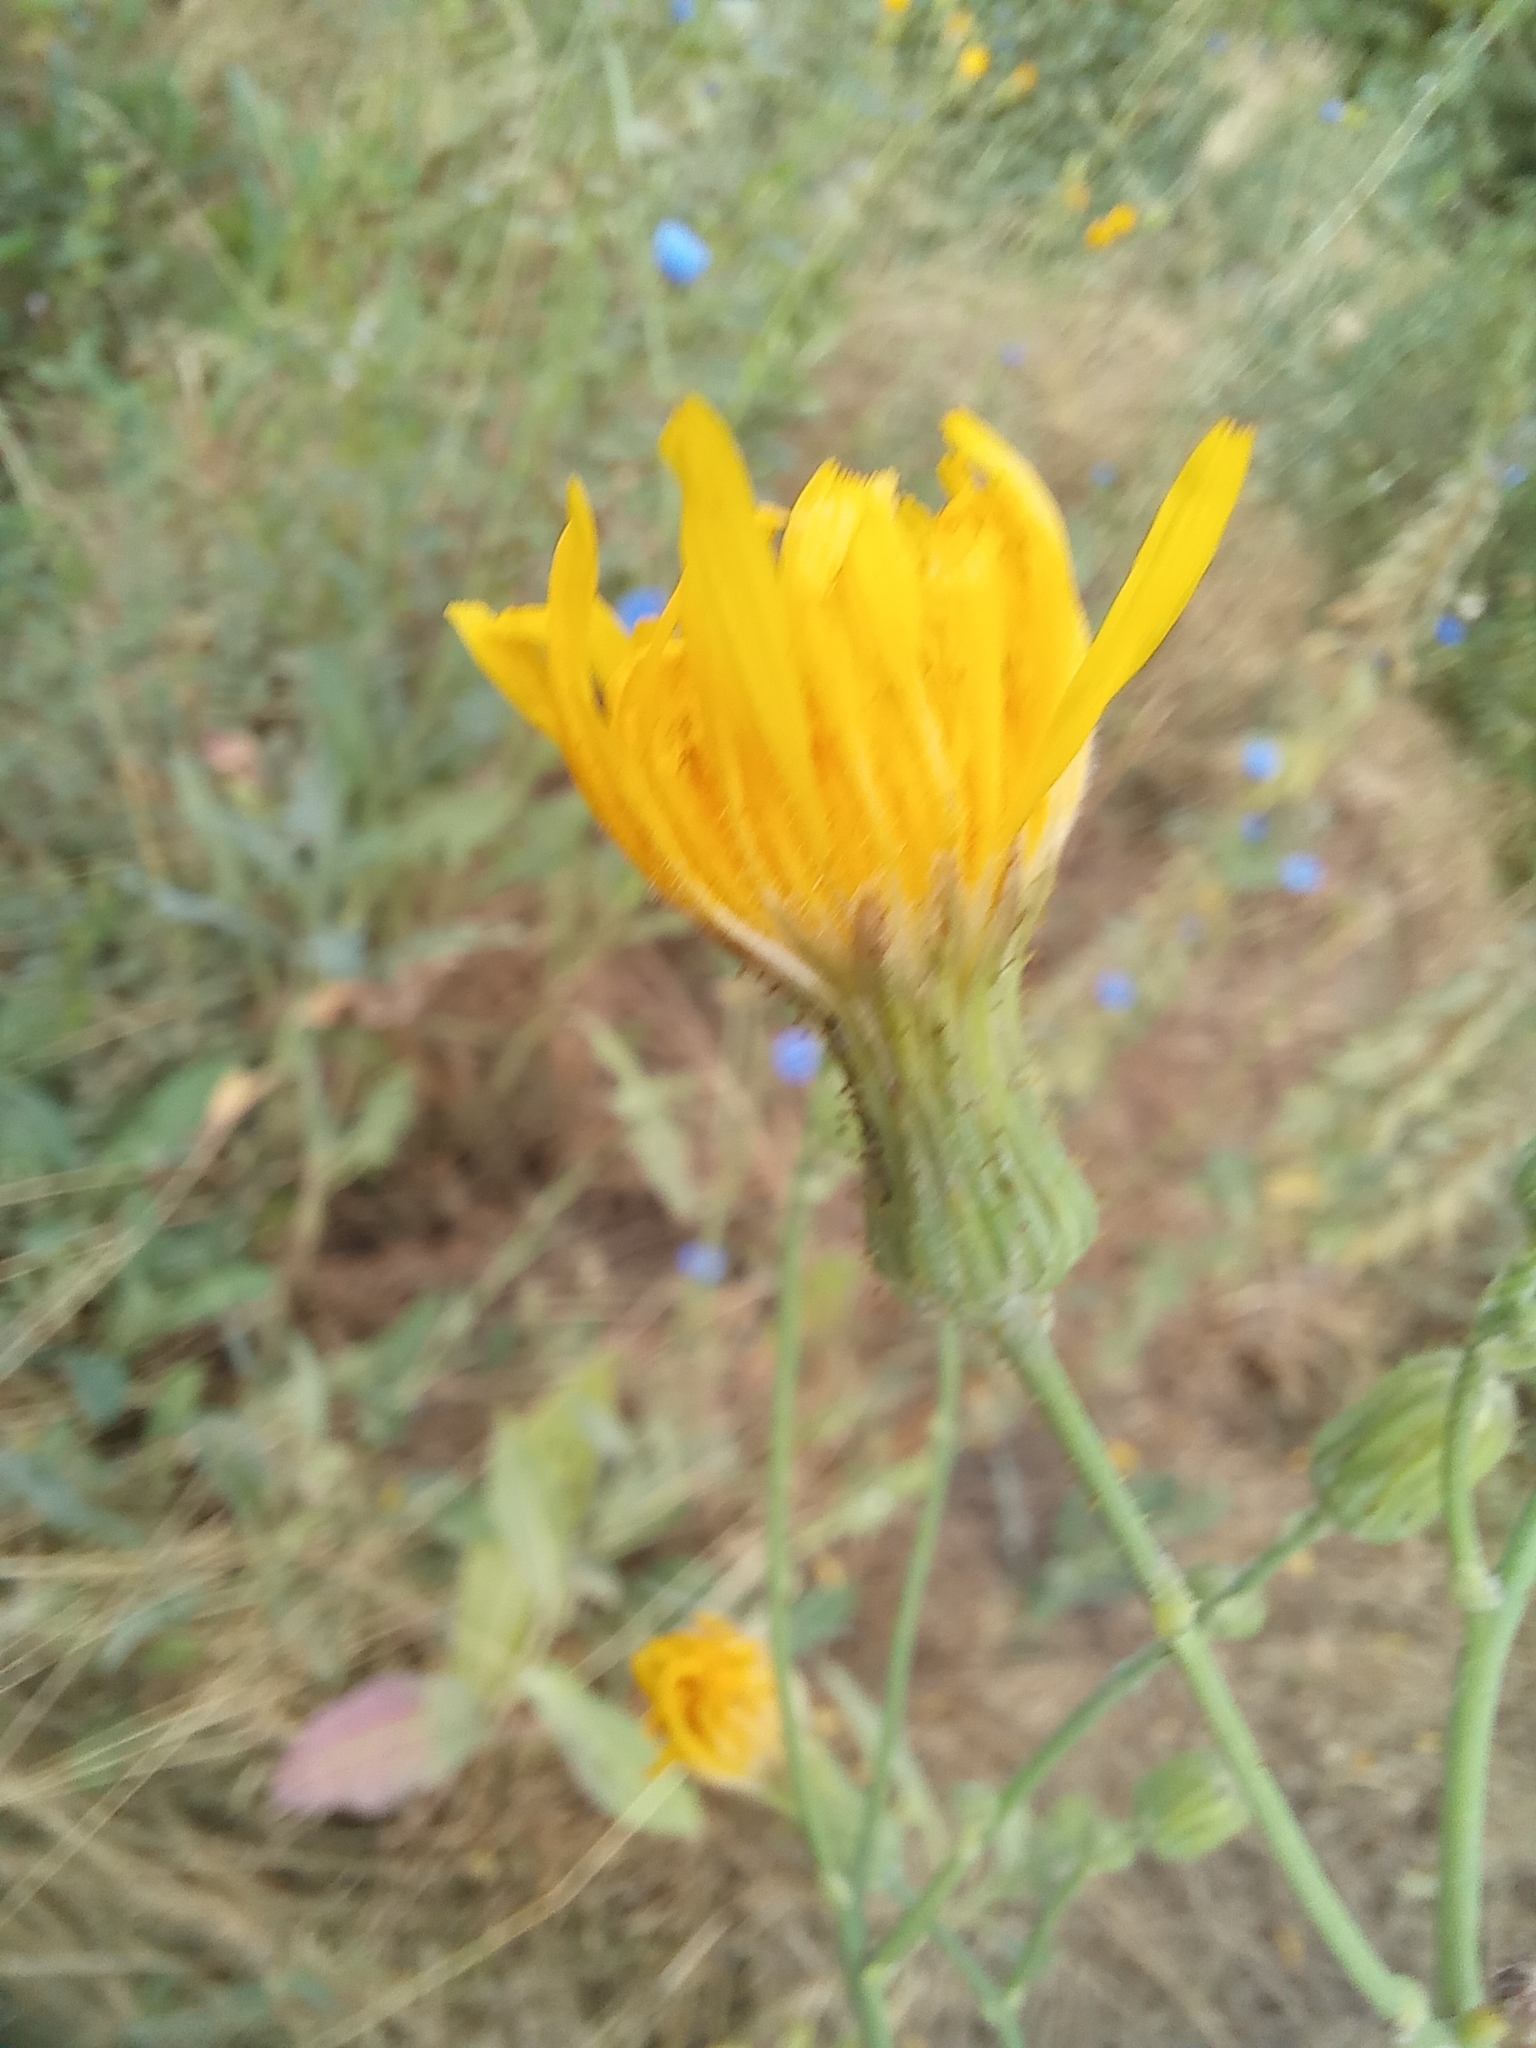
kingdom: Plantae
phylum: Tracheophyta
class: Magnoliopsida
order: Asterales
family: Asteraceae
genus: Sonchus
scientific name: Sonchus arvensis
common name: Perennial sow-thistle
